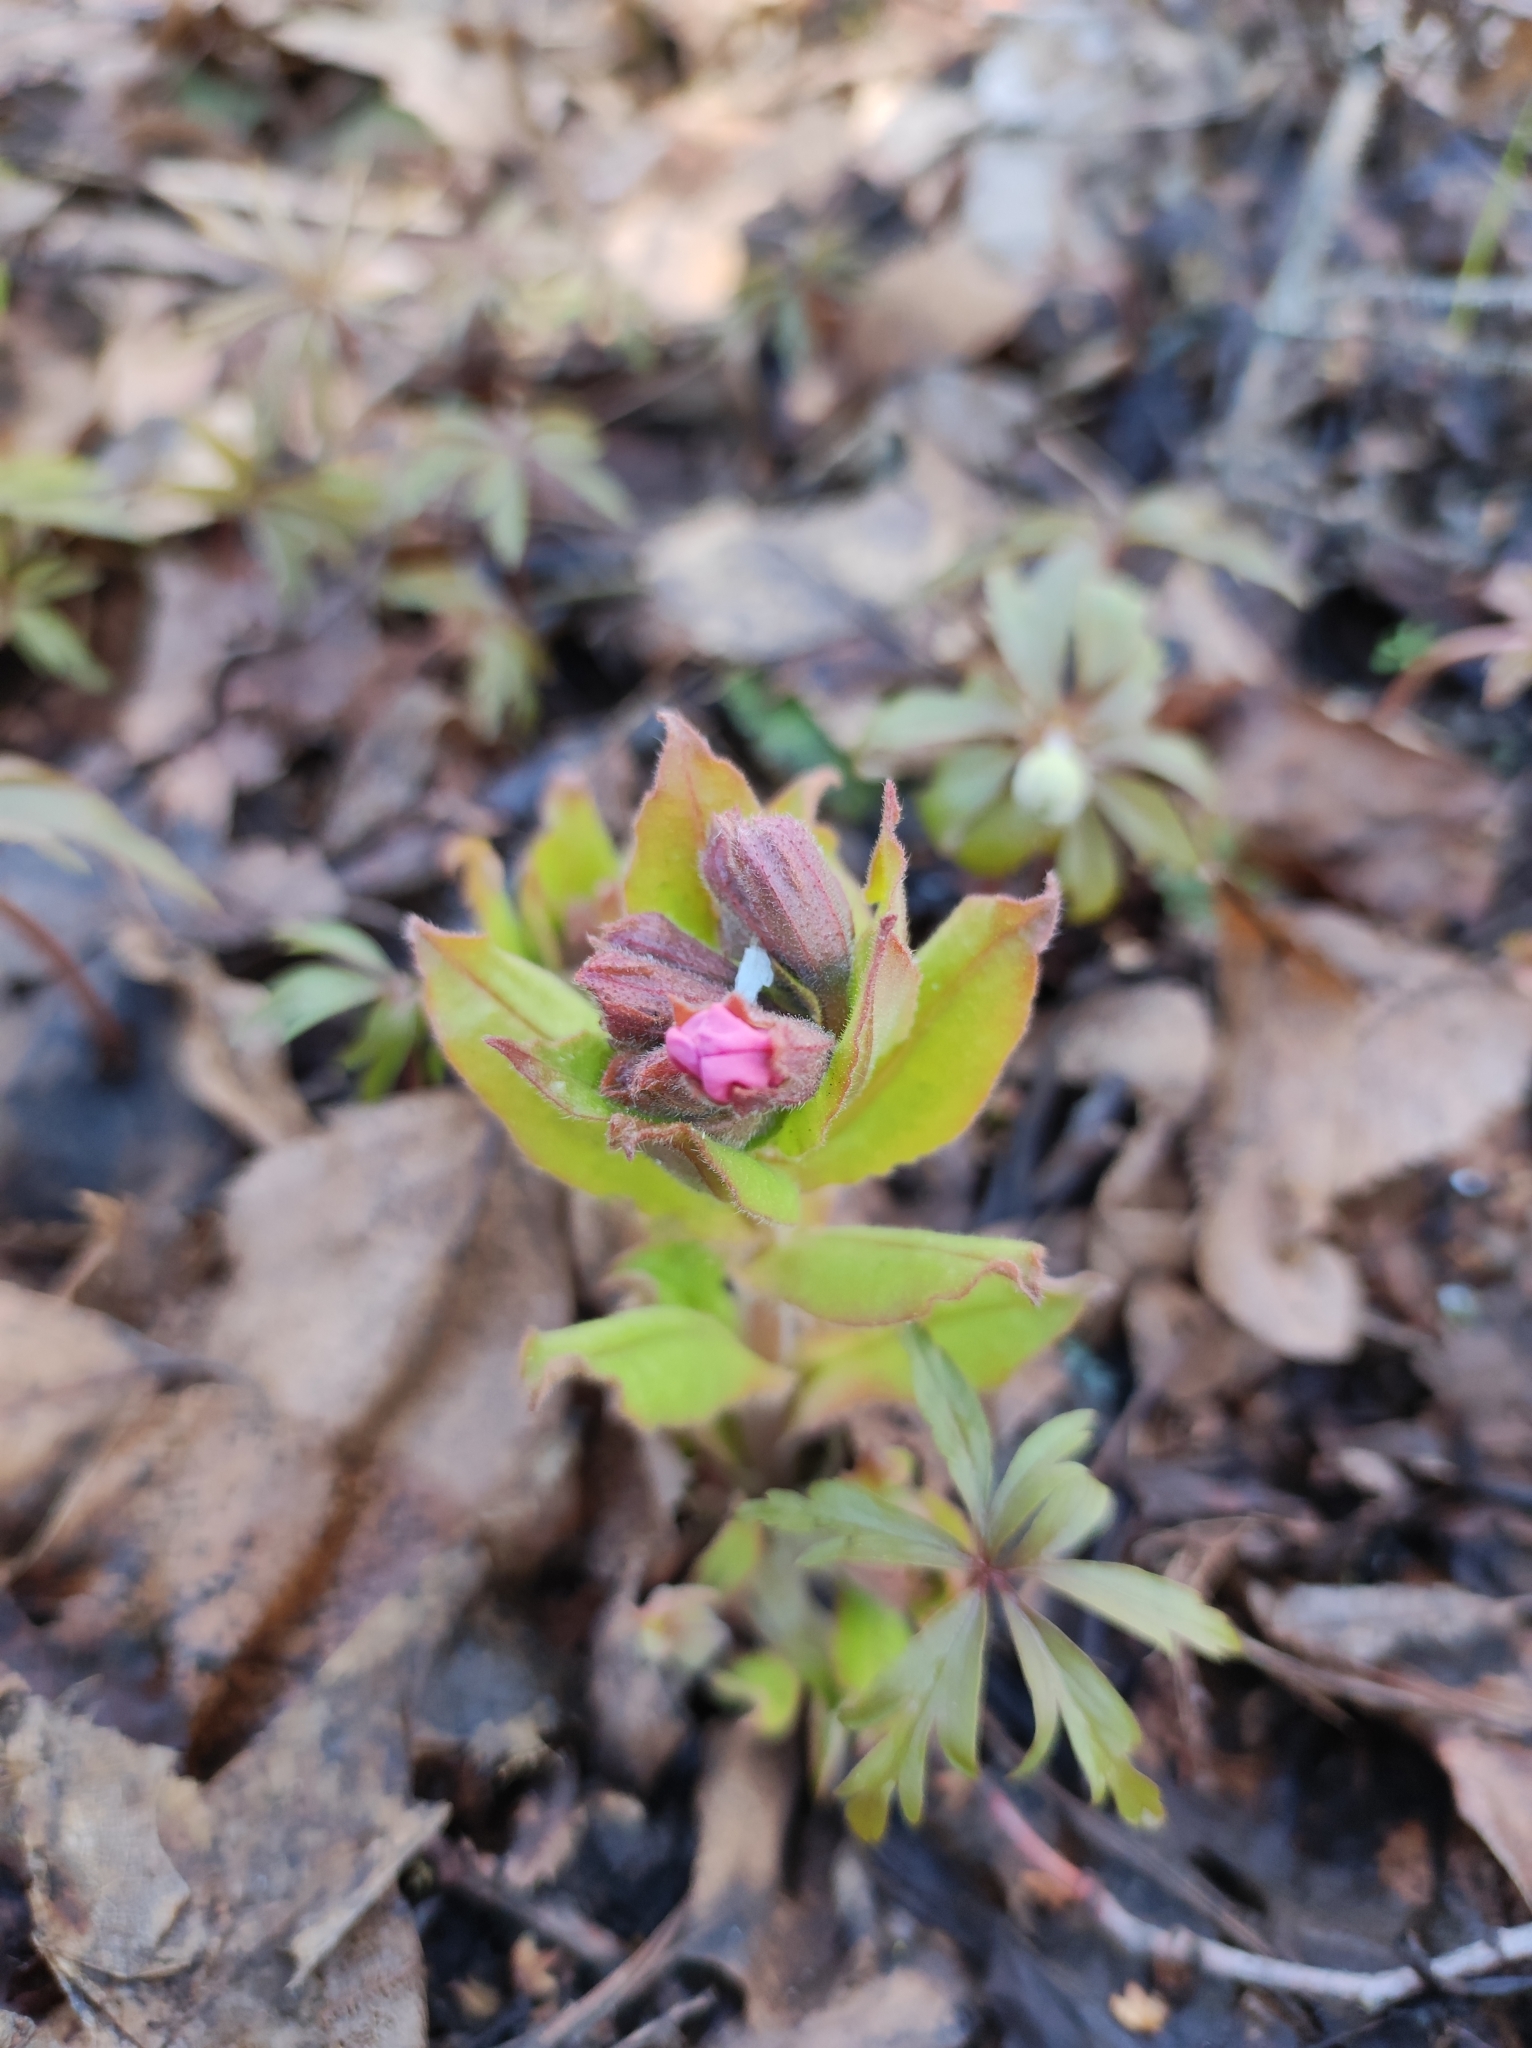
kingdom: Plantae
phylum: Tracheophyta
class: Magnoliopsida
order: Boraginales
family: Boraginaceae
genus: Pulmonaria
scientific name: Pulmonaria obscura
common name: Suffolk lungwort
